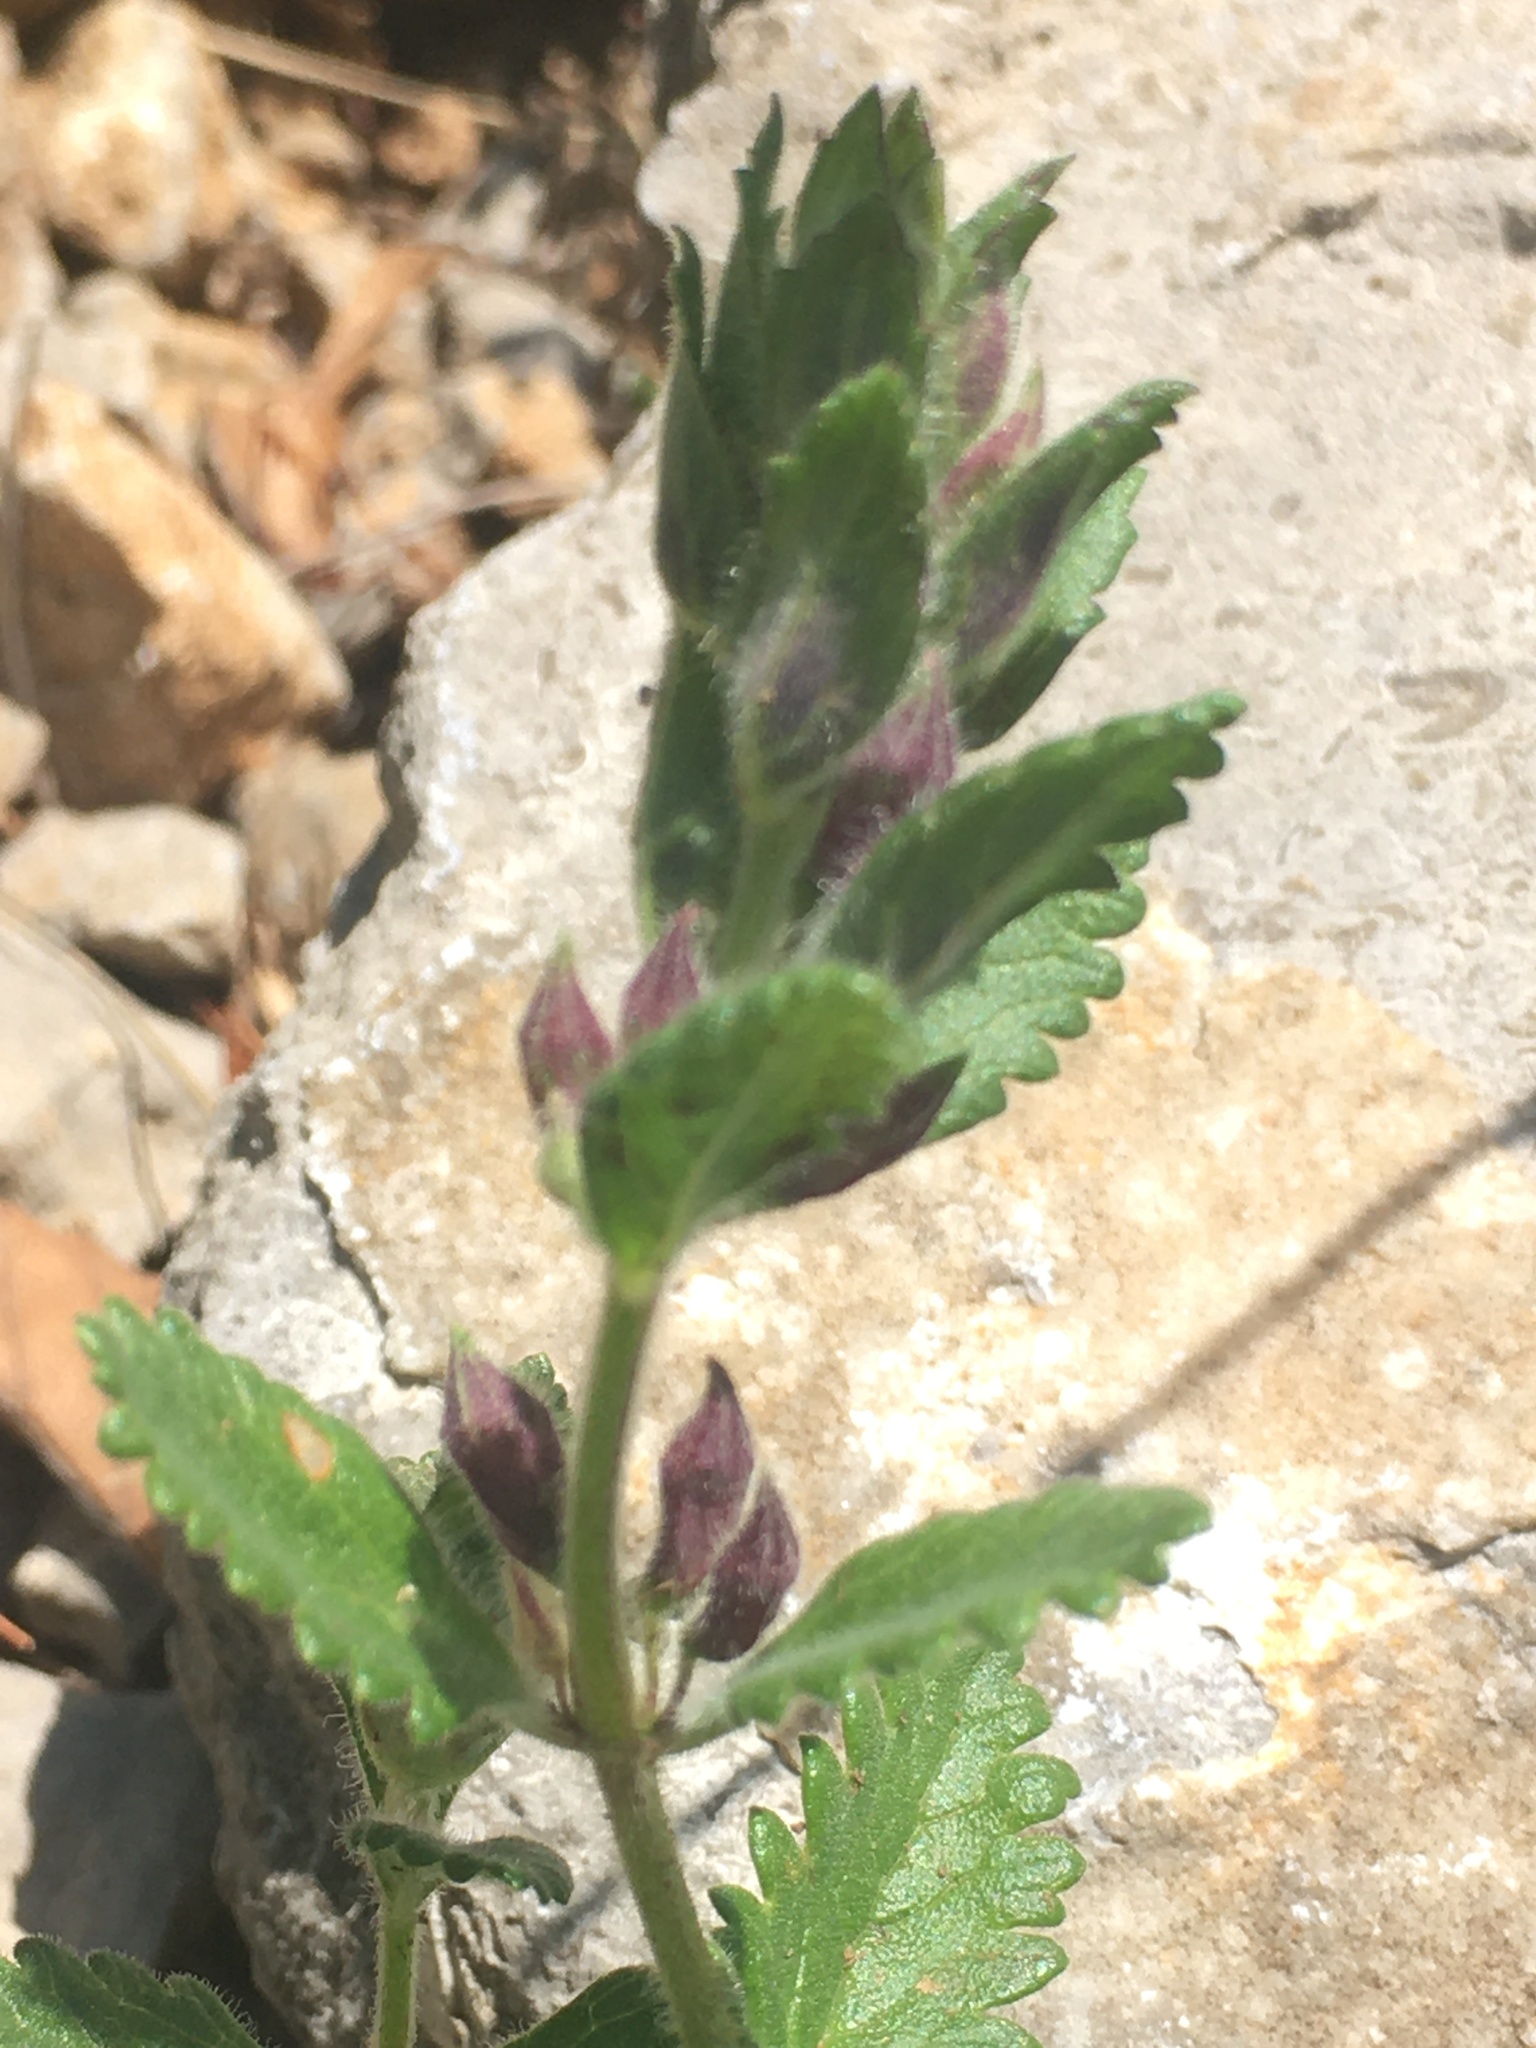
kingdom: Plantae
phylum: Tracheophyta
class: Magnoliopsida
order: Lamiales
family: Lamiaceae
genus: Teucrium
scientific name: Teucrium chamaedrys
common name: Wall germander
